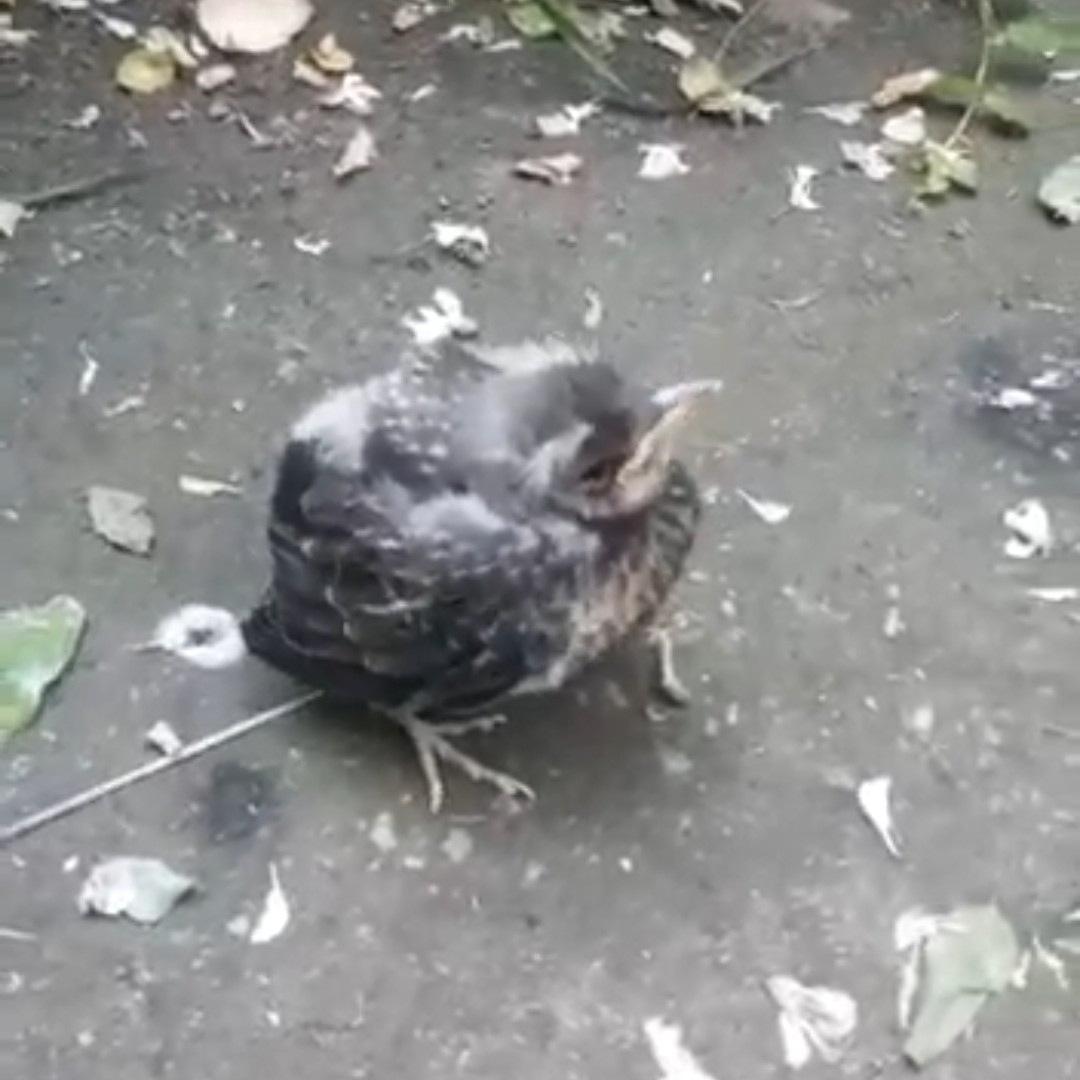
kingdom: Animalia
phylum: Chordata
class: Aves
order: Passeriformes
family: Turdidae
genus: Turdus
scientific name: Turdus pilaris
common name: Fieldfare
